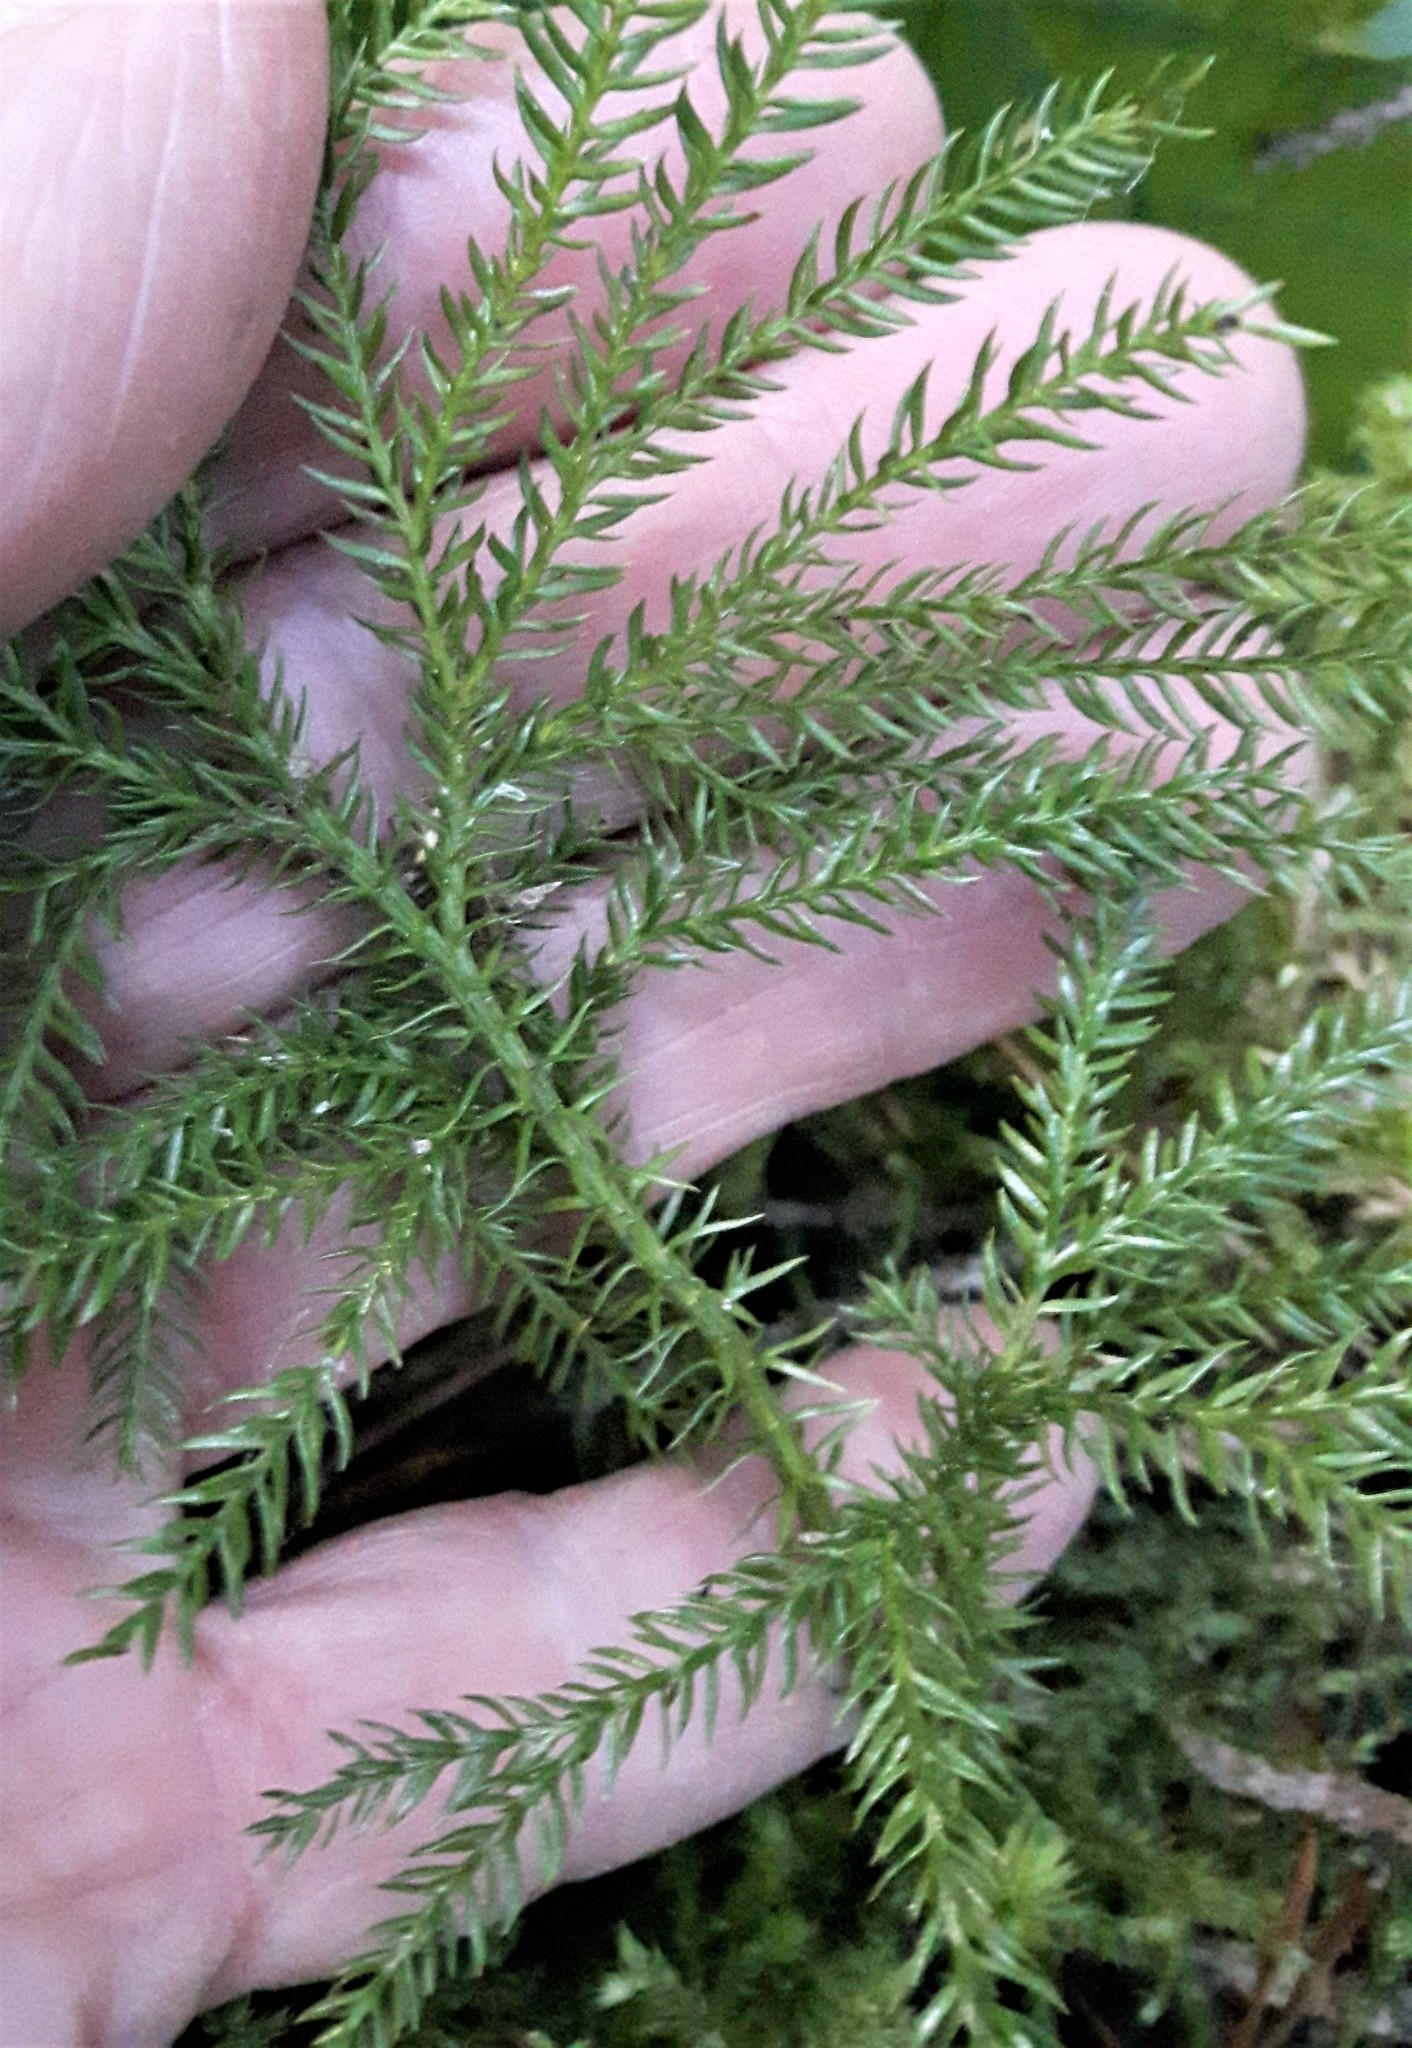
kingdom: Plantae
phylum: Tracheophyta
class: Lycopodiopsida
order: Lycopodiales
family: Lycopodiaceae
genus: Dendrolycopodium
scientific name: Dendrolycopodium dendroideum
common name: Northern tree-clubmoss
